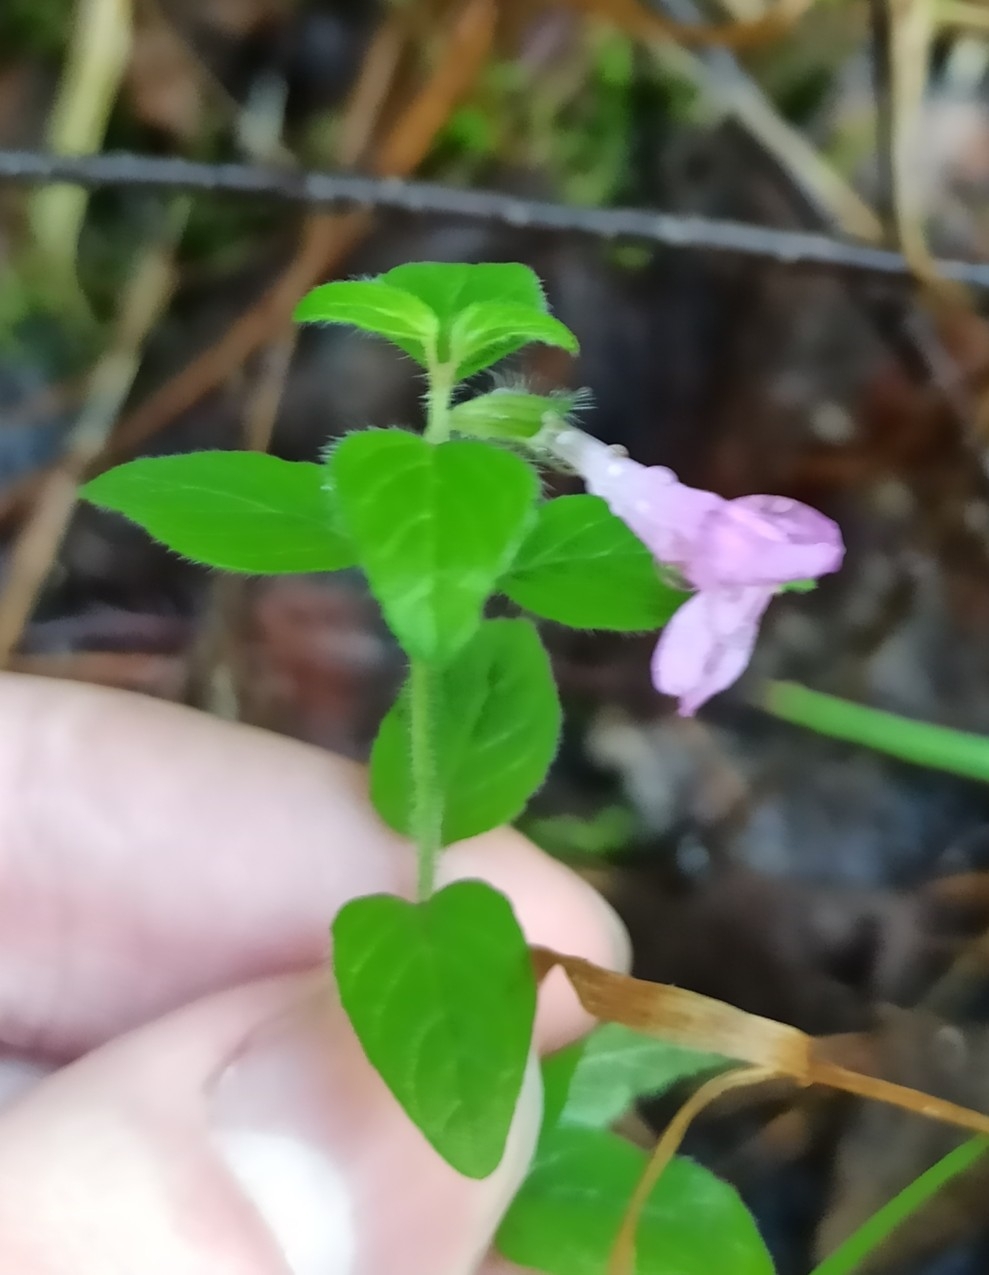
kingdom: Plantae
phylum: Tracheophyta
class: Magnoliopsida
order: Lamiales
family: Lamiaceae
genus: Clinopodium
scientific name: Clinopodium vulgare
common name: Wild basil
